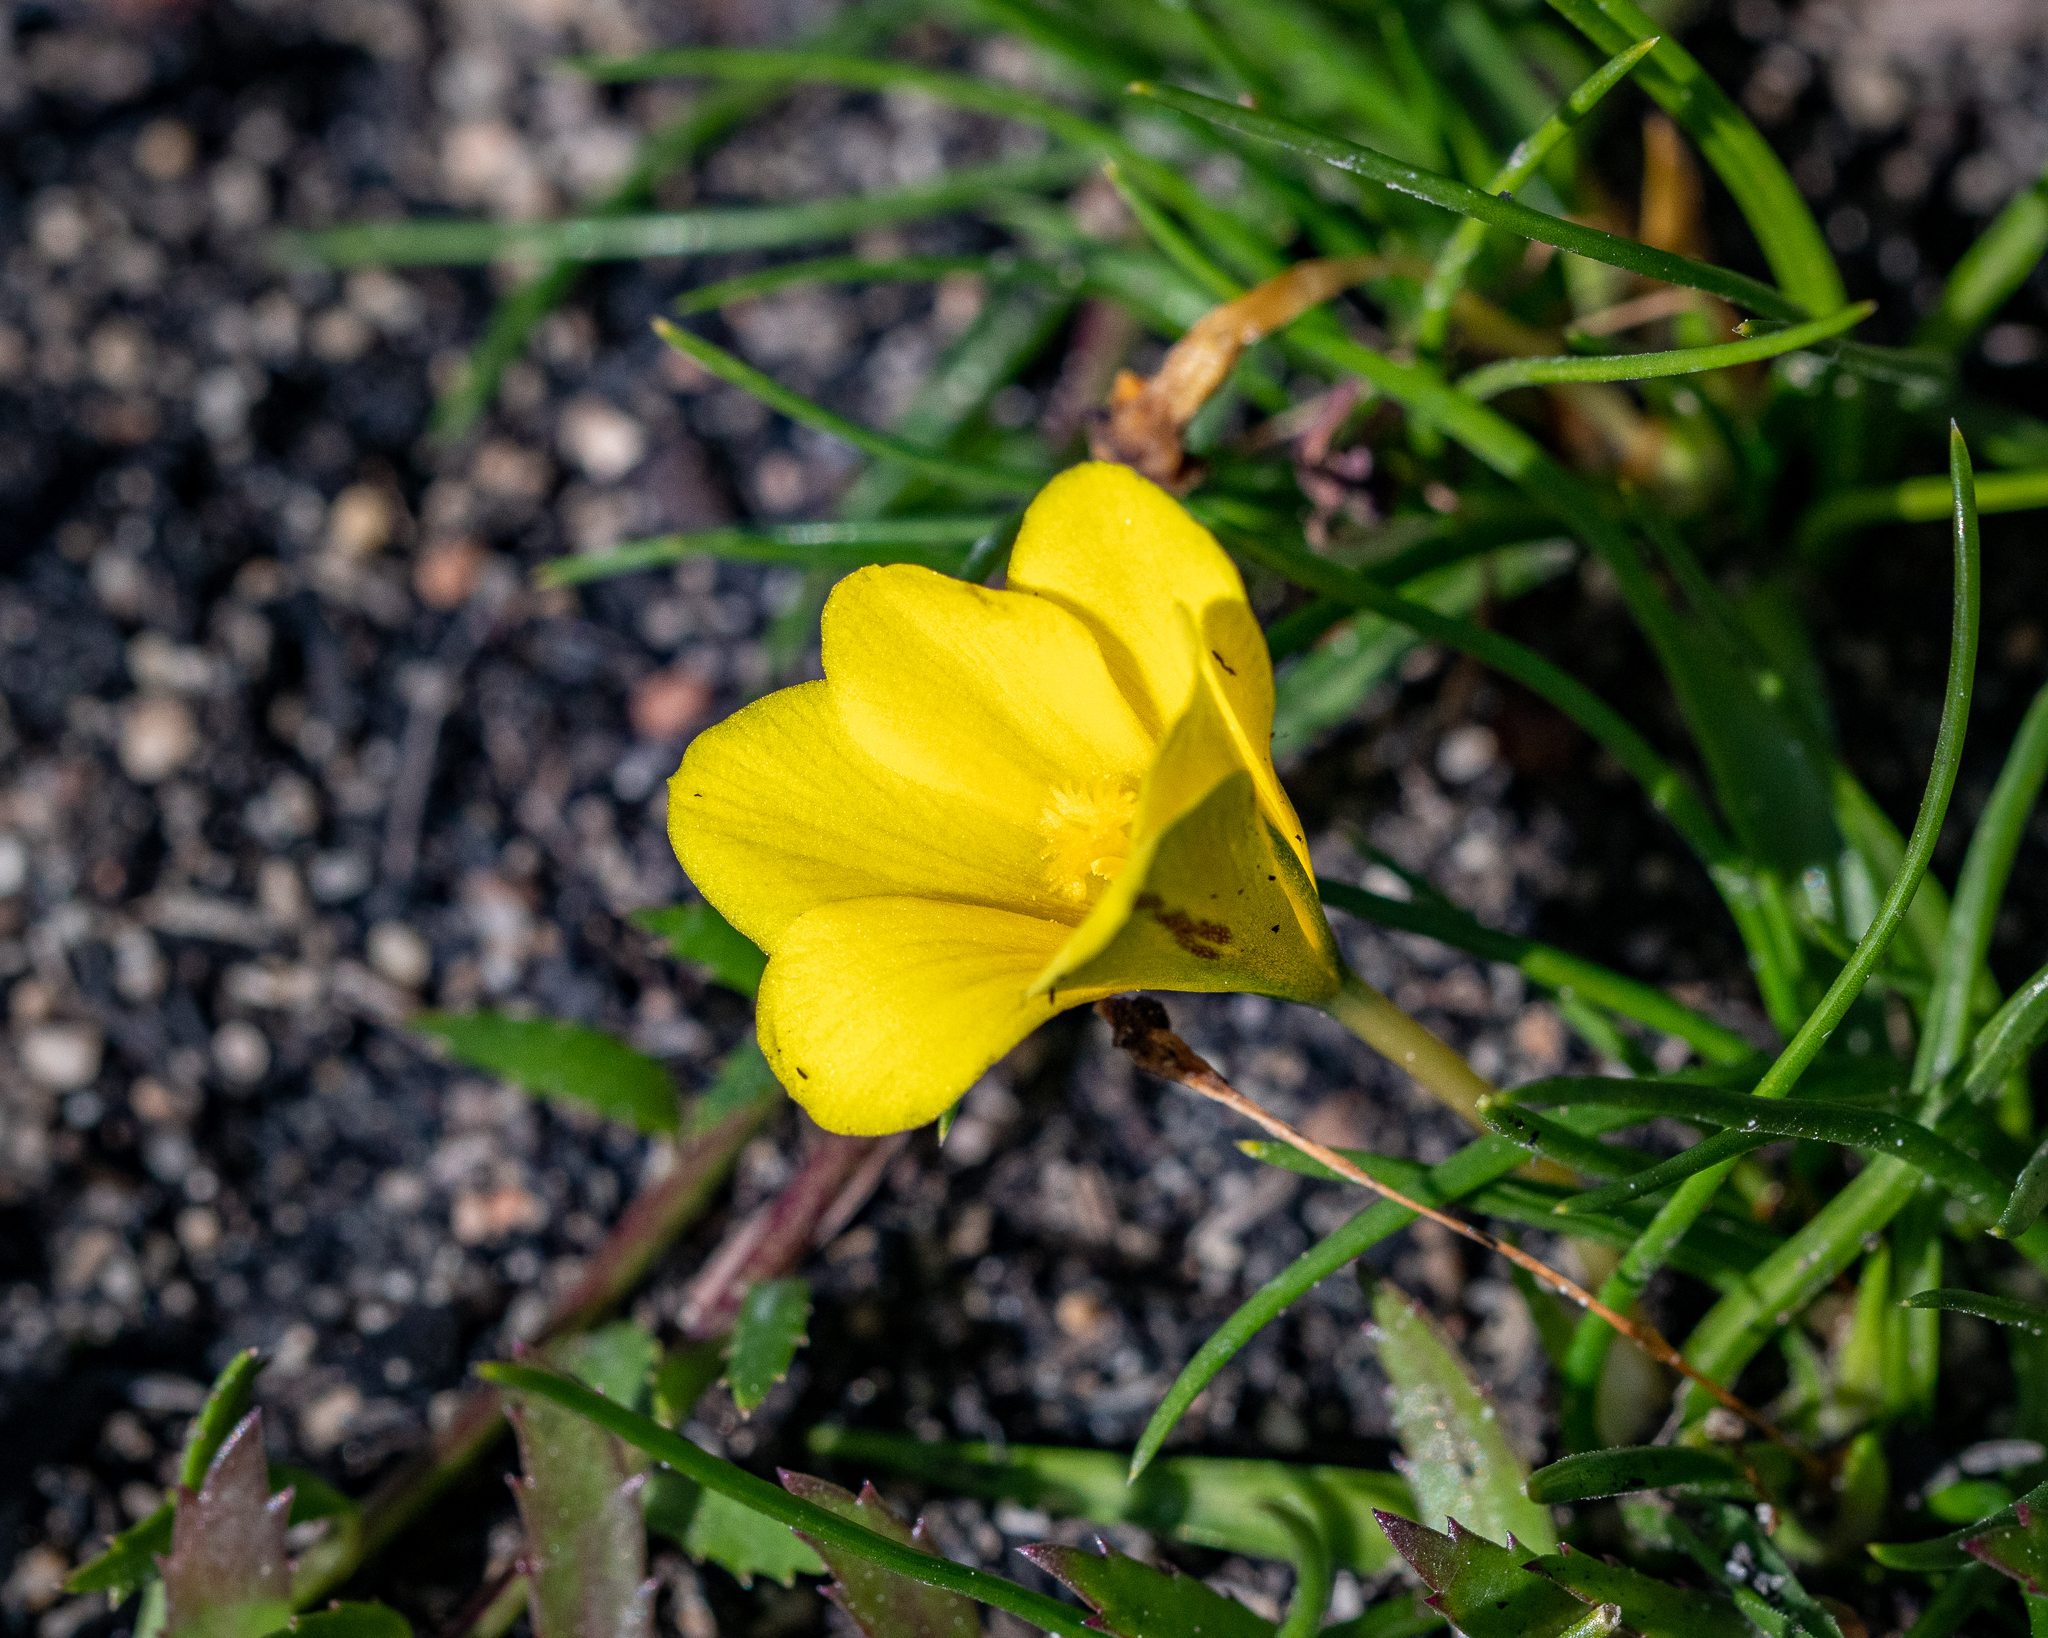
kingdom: Plantae
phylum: Tracheophyta
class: Liliopsida
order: Asparagales
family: Iridaceae
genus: Moraea
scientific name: Moraea fugacissima
